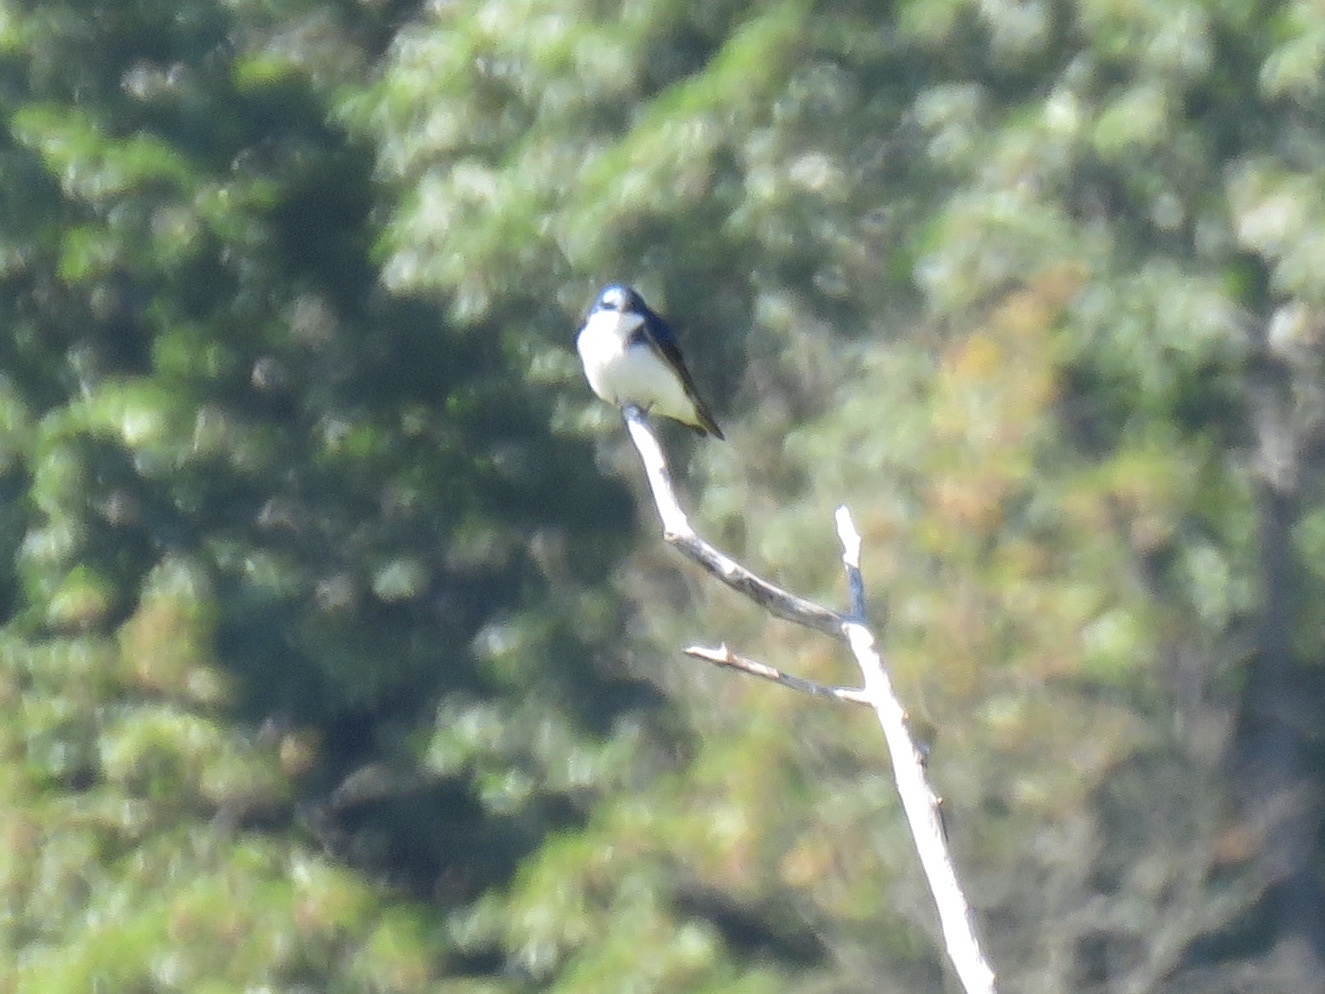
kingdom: Animalia
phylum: Chordata
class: Aves
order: Passeriformes
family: Hirundinidae
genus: Tachycineta
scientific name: Tachycineta bicolor
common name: Tree swallow
